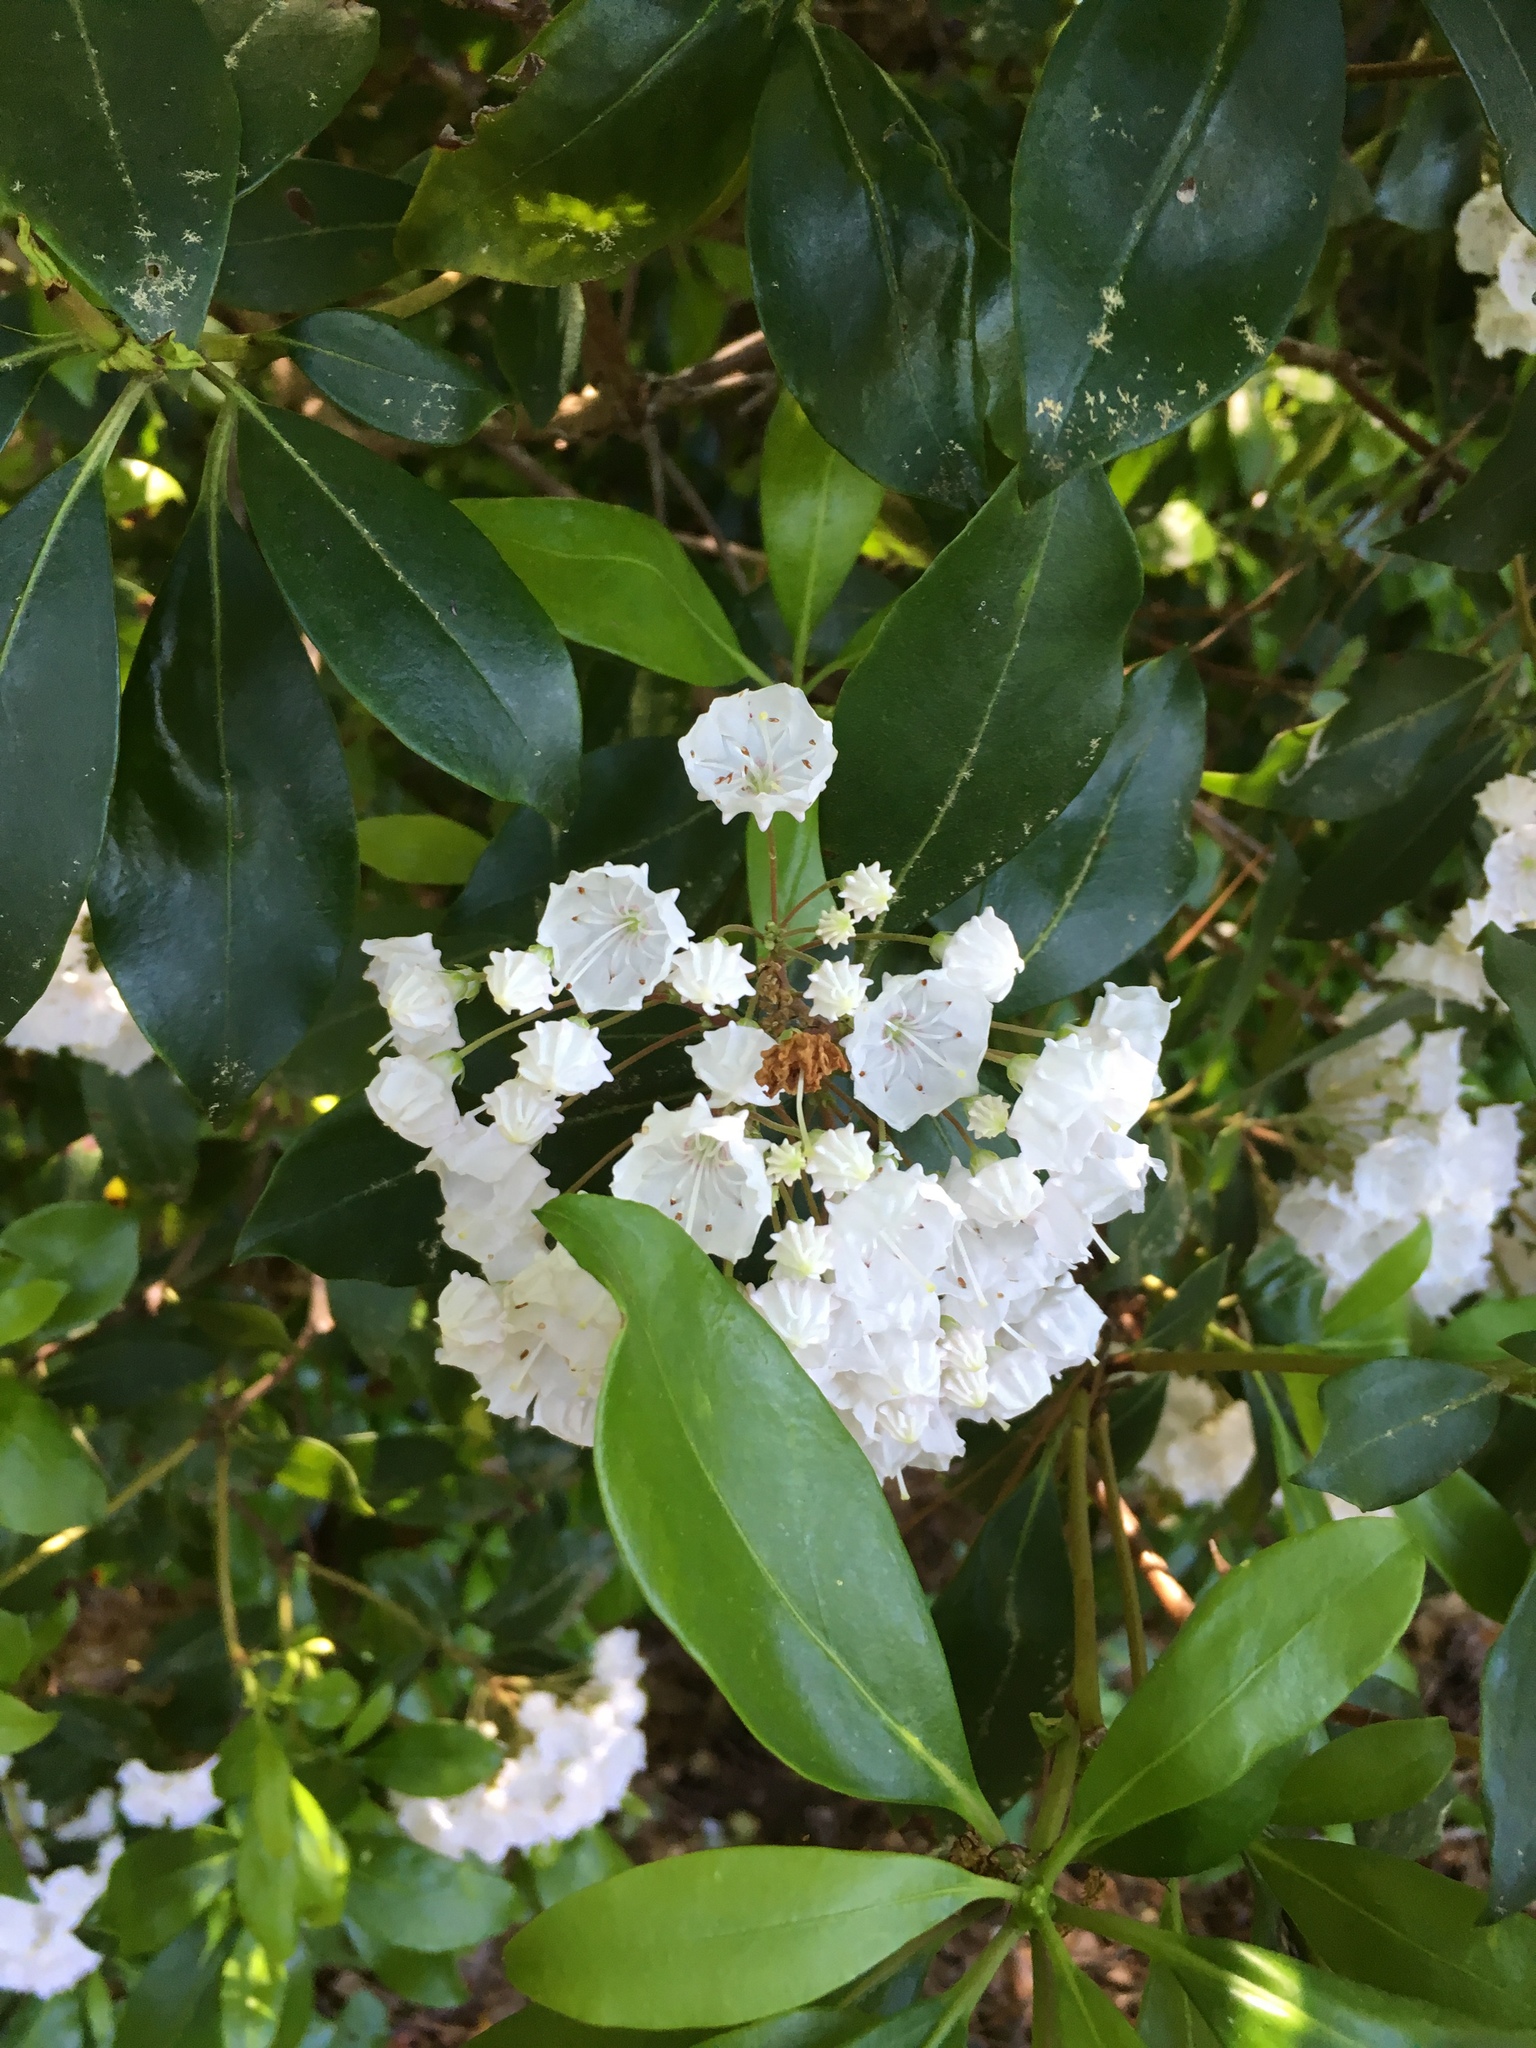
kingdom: Plantae
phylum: Tracheophyta
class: Magnoliopsida
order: Ericales
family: Ericaceae
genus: Kalmia
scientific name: Kalmia latifolia
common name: Mountain-laurel
